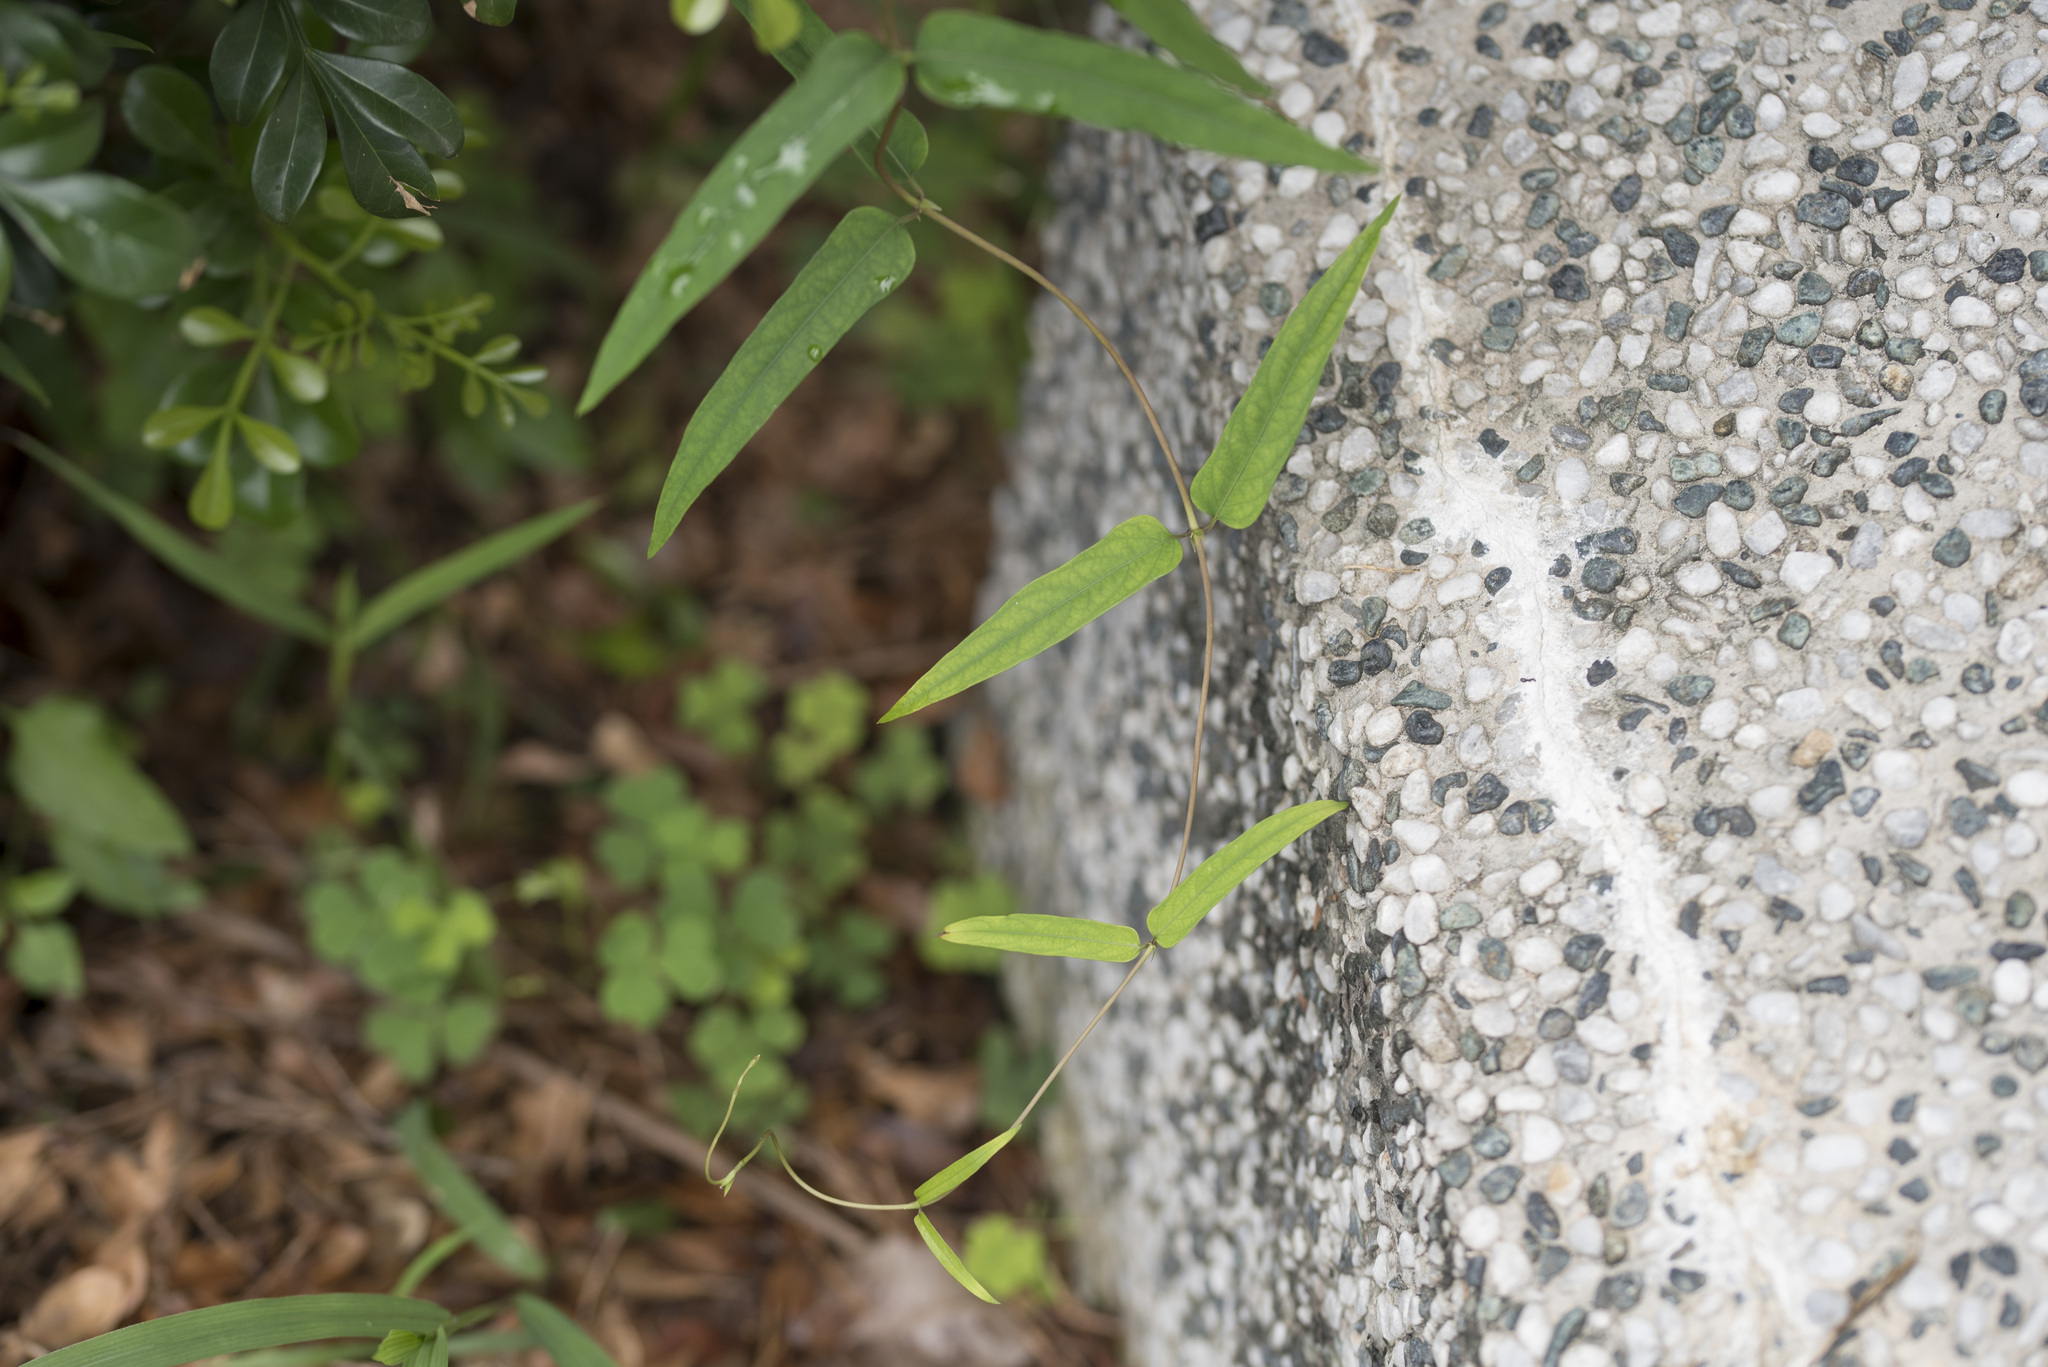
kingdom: Plantae
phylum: Tracheophyta
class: Magnoliopsida
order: Gentianales
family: Rubiaceae
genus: Paederia
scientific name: Paederia foetida
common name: Stinkvine
